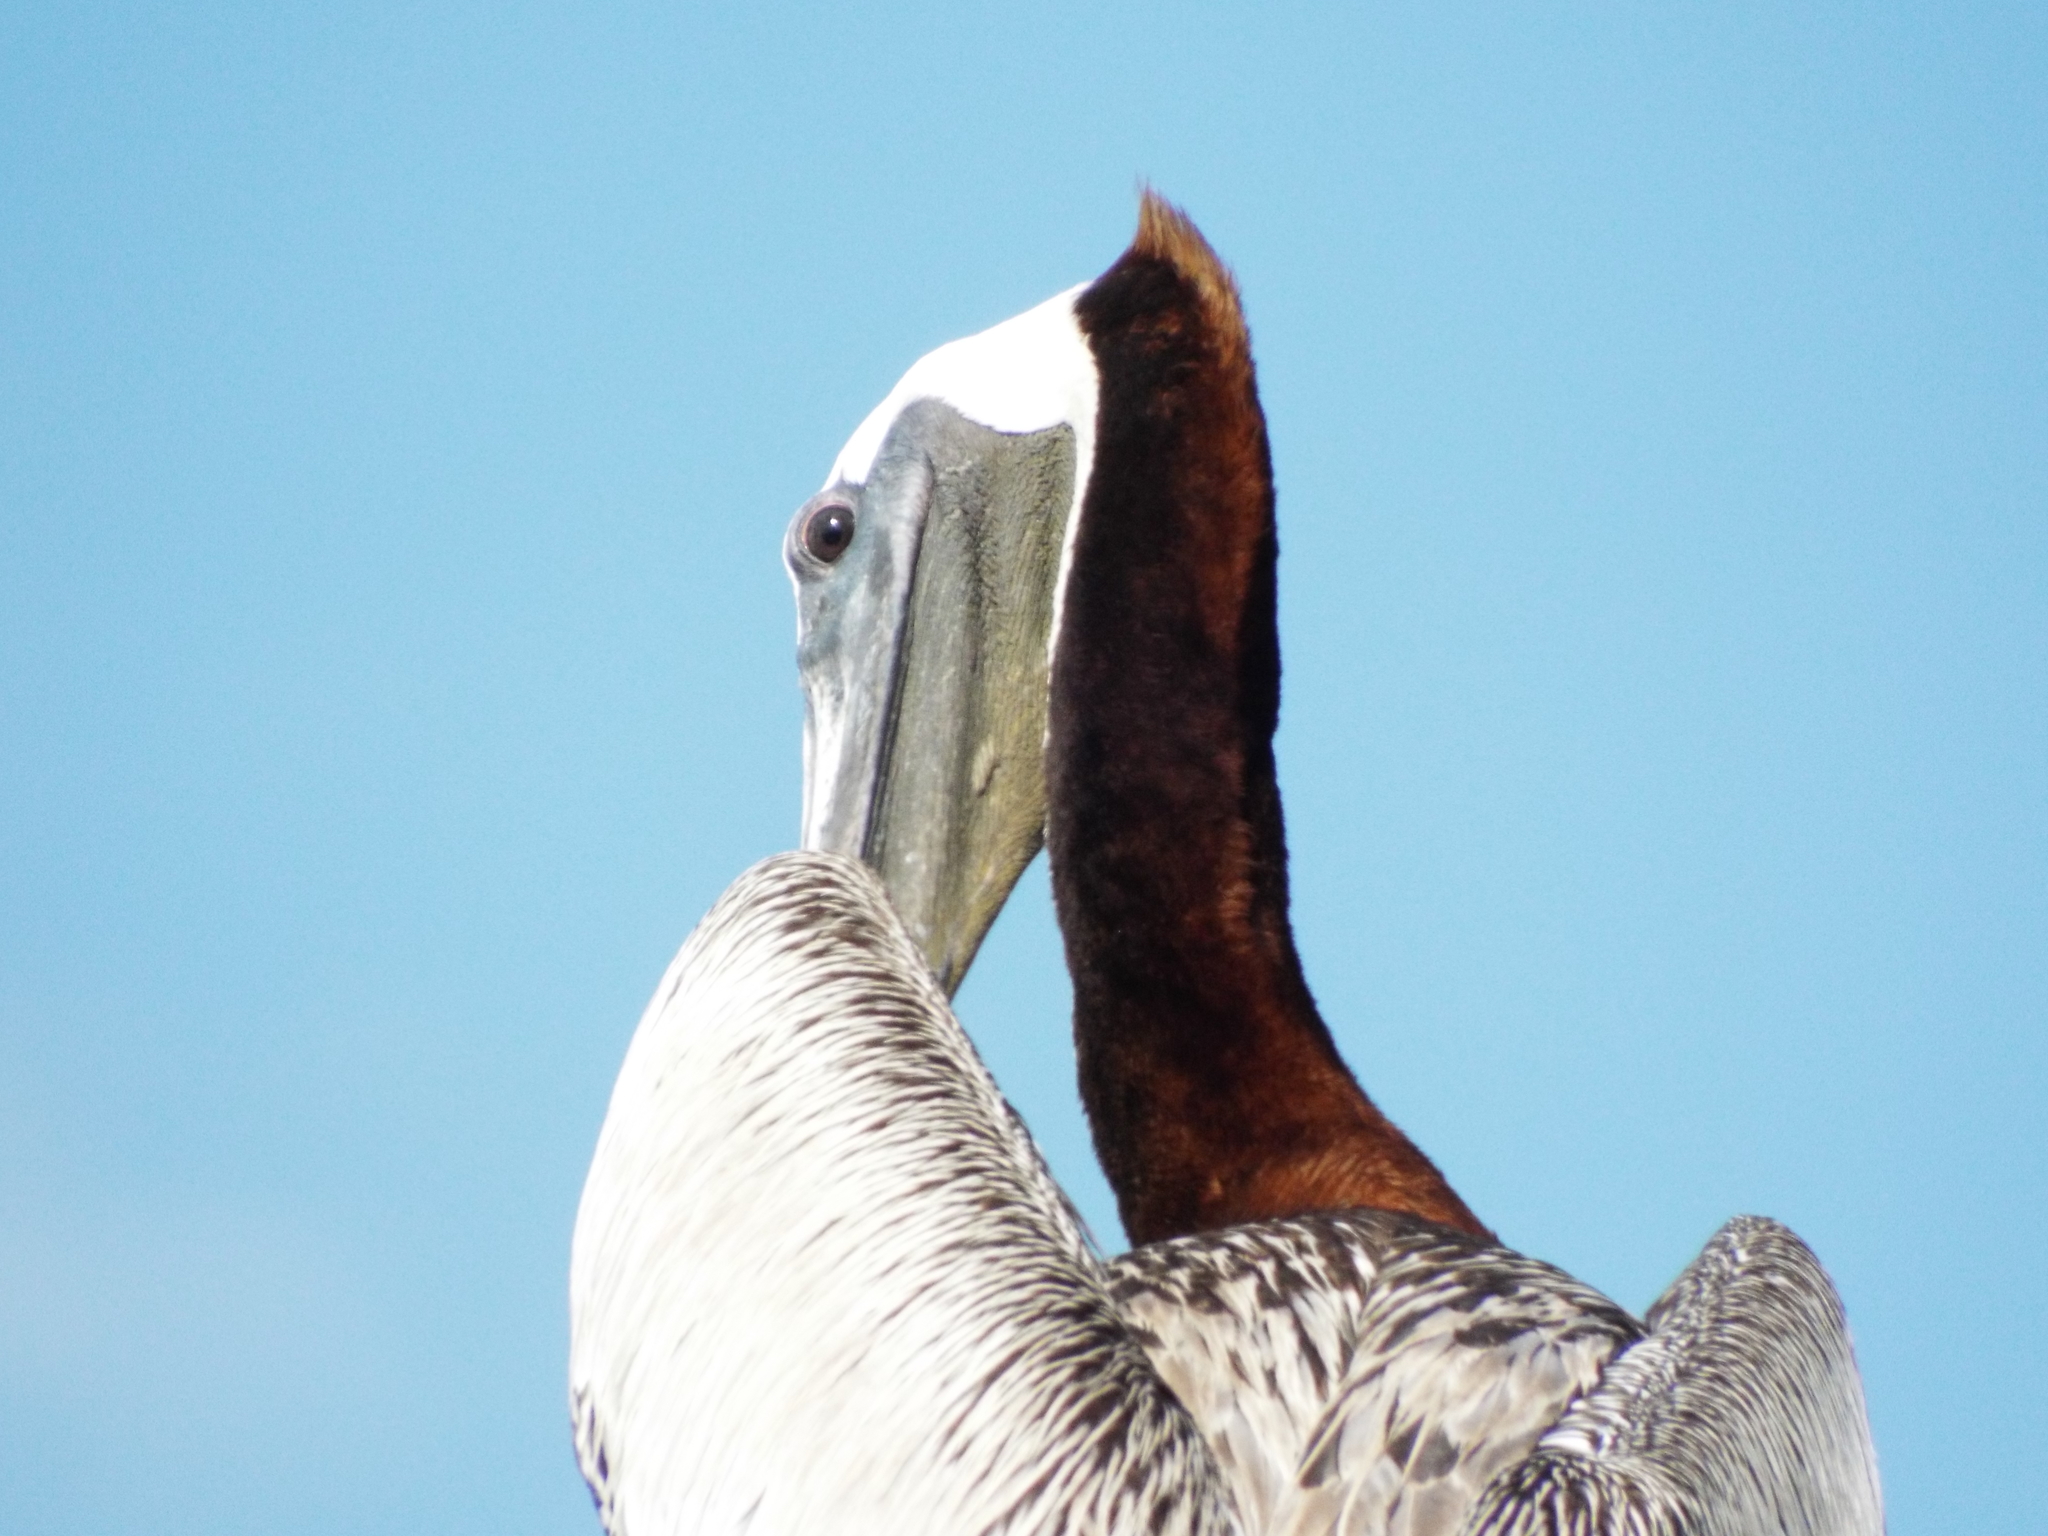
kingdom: Animalia
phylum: Chordata
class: Aves
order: Pelecaniformes
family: Pelecanidae
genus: Pelecanus
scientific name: Pelecanus occidentalis
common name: Brown pelican
